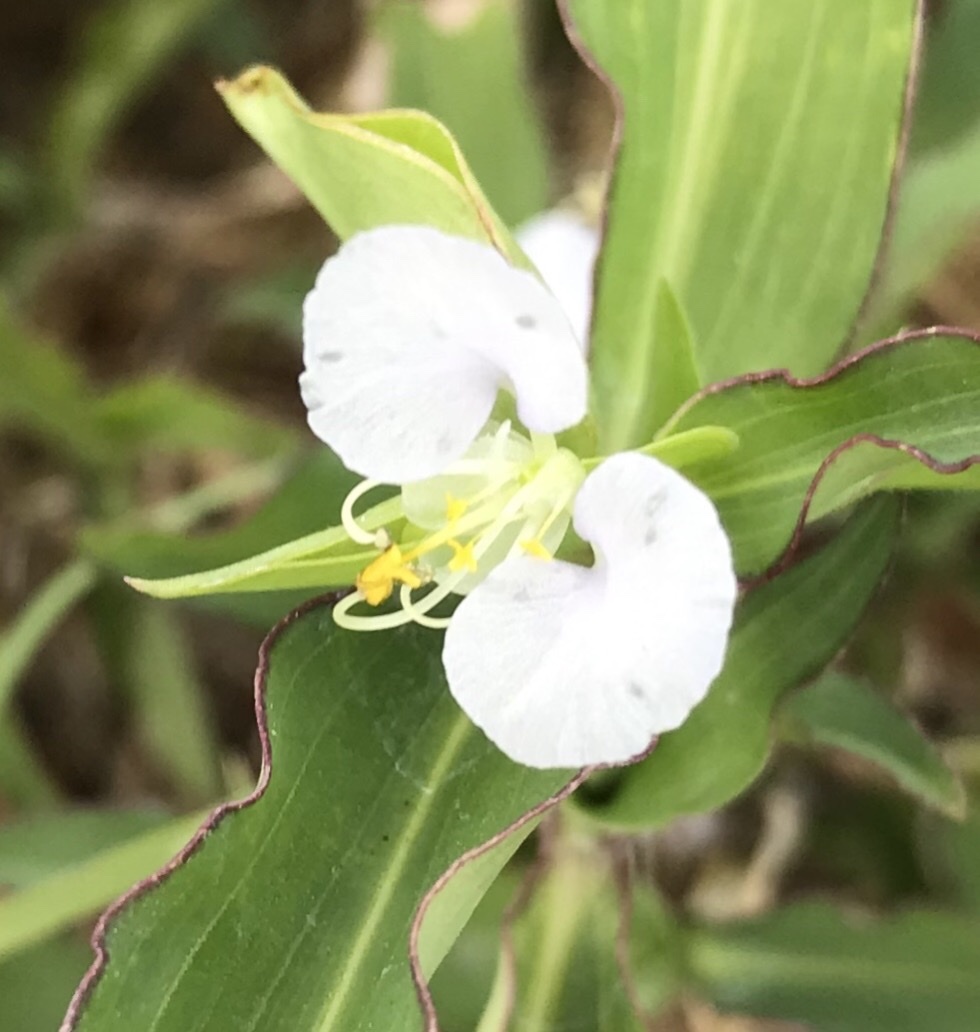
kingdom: Plantae
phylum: Tracheophyta
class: Liliopsida
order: Commelinales
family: Commelinaceae
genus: Commelina
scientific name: Commelina erecta
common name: Blousel blommetjie
